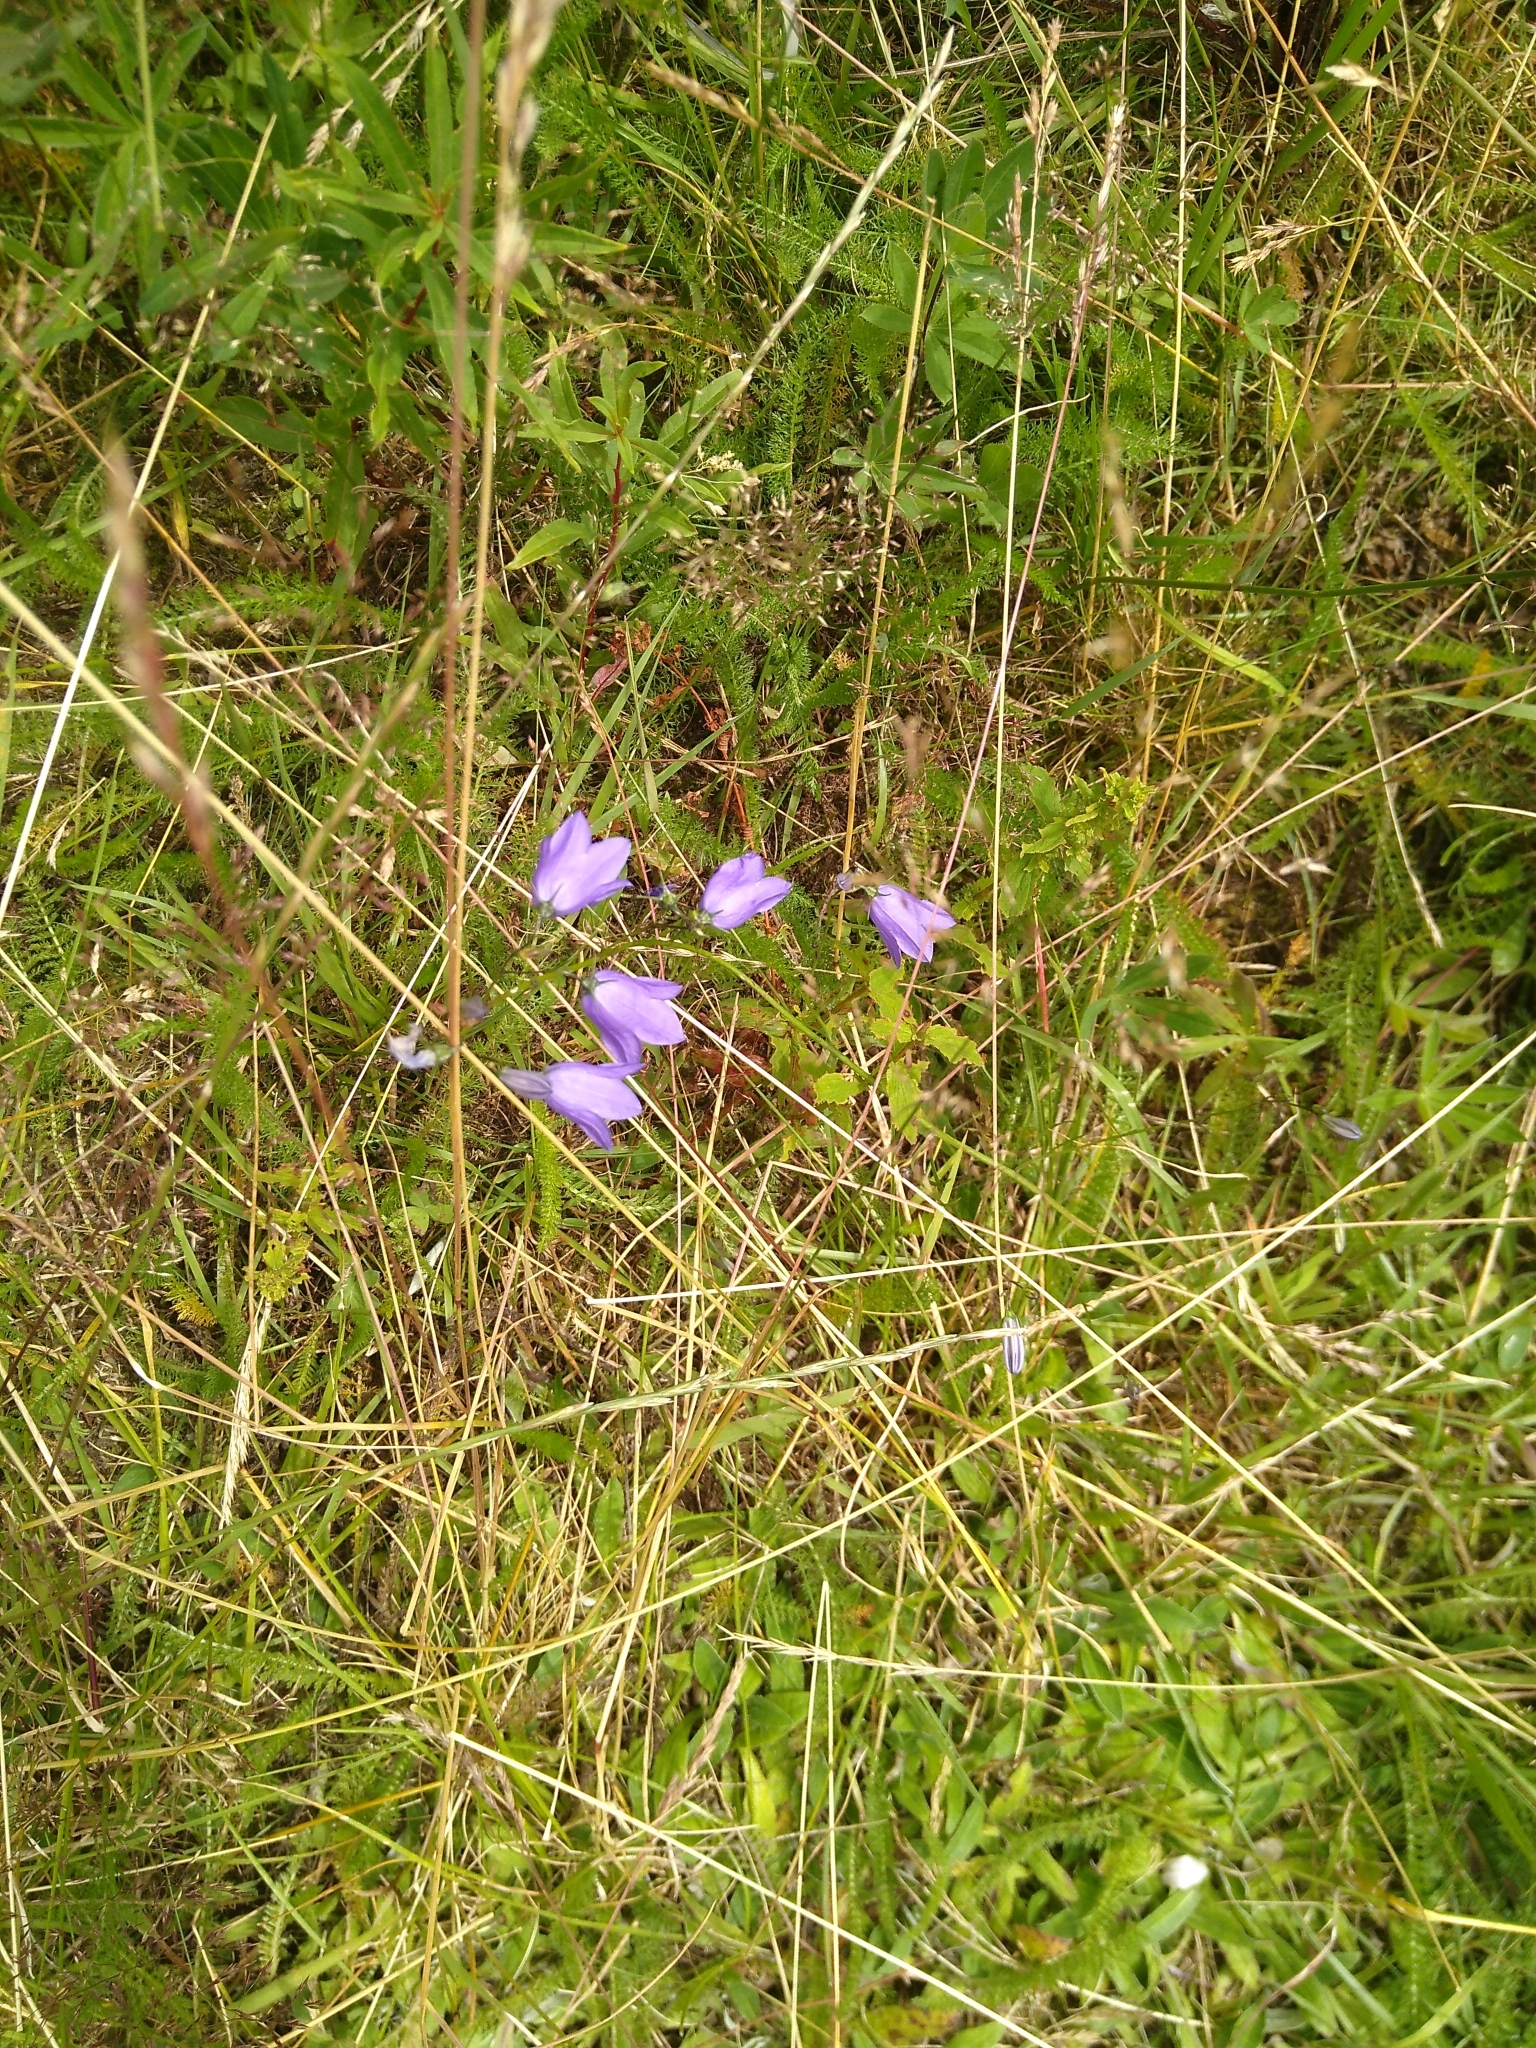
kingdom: Plantae
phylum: Tracheophyta
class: Magnoliopsida
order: Asterales
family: Campanulaceae
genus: Campanula
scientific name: Campanula rotundifolia
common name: Harebell
